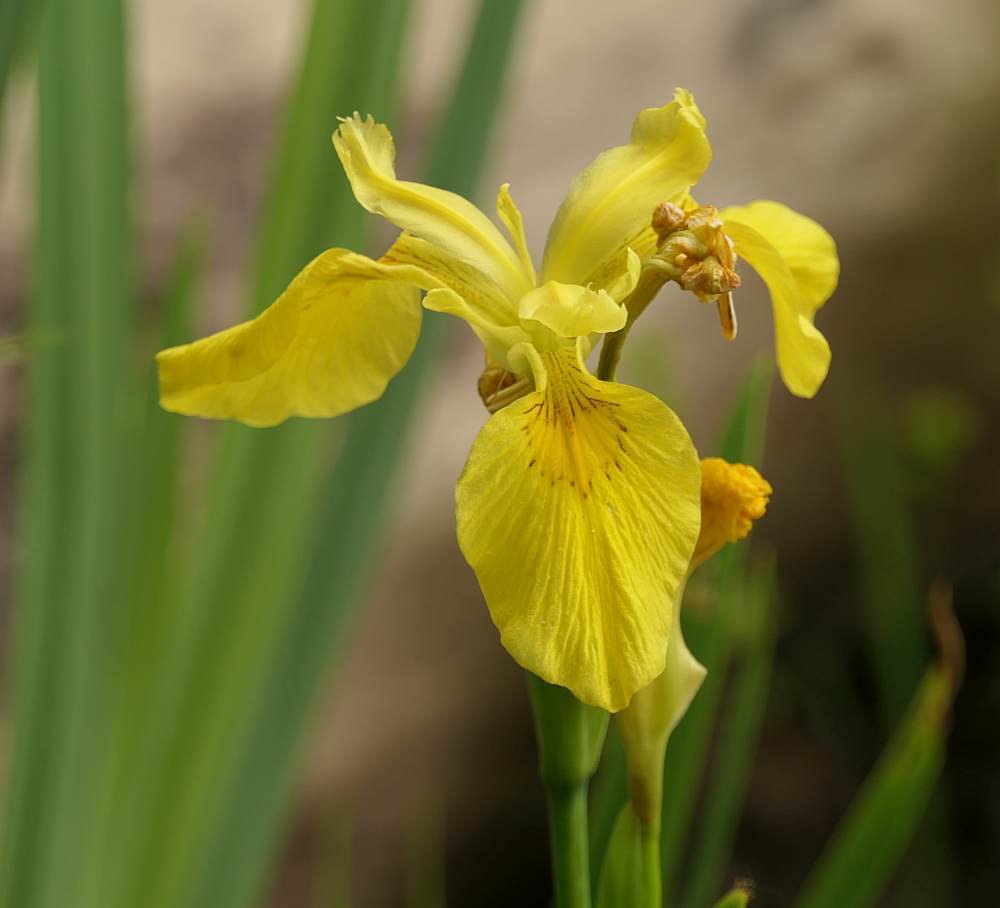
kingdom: Plantae
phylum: Tracheophyta
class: Liliopsida
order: Asparagales
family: Iridaceae
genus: Iris
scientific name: Iris pseudacorus
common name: Yellow flag
